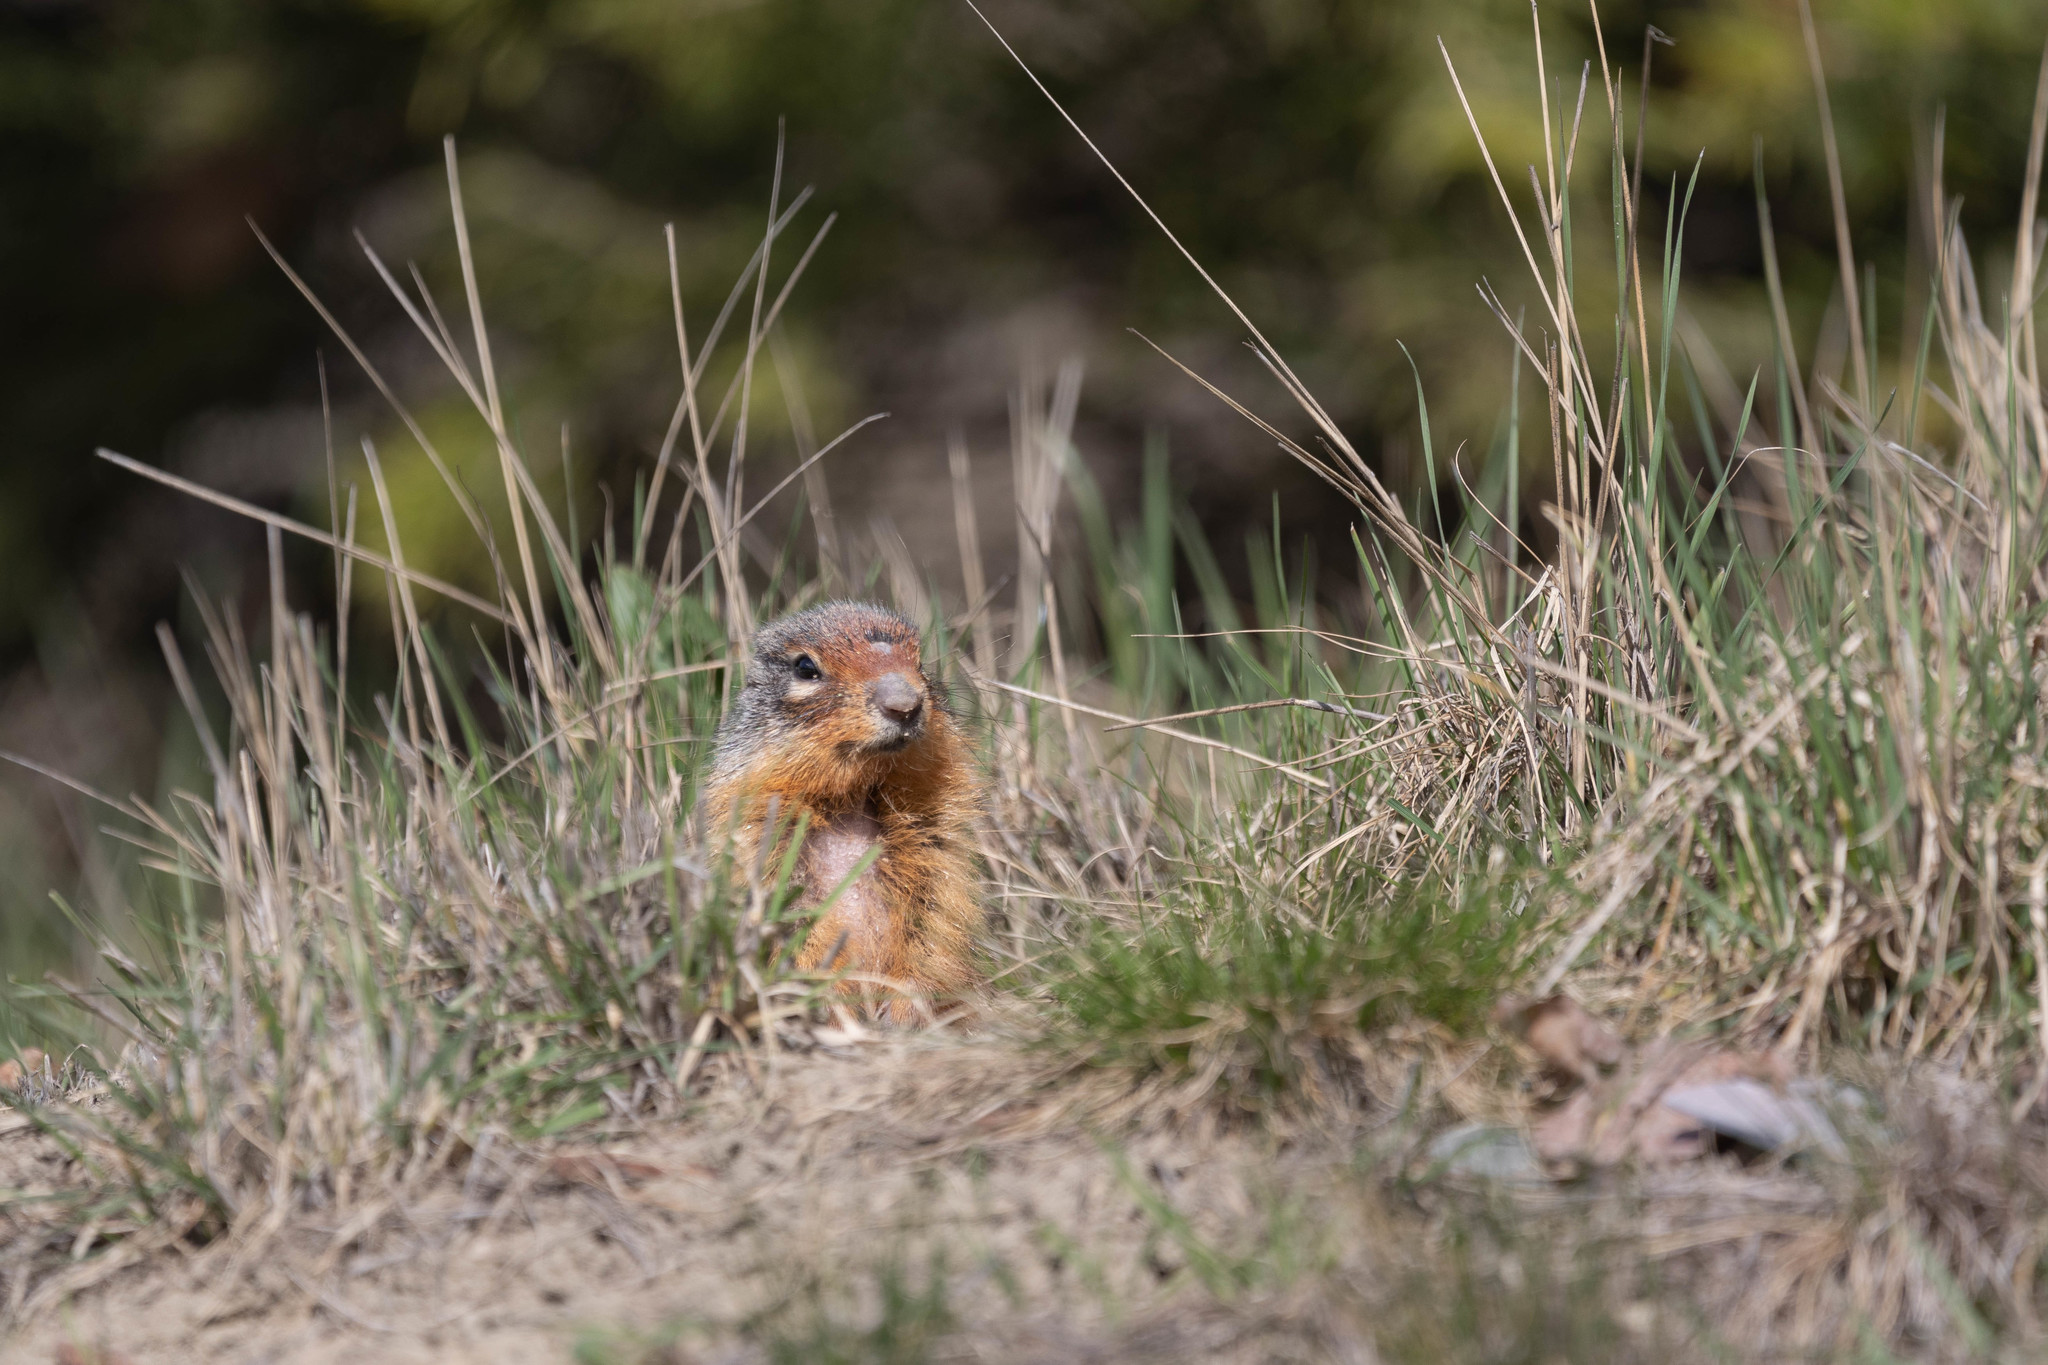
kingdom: Animalia
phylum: Chordata
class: Mammalia
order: Rodentia
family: Sciuridae
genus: Urocitellus
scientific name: Urocitellus columbianus
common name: Columbian ground squirrel
